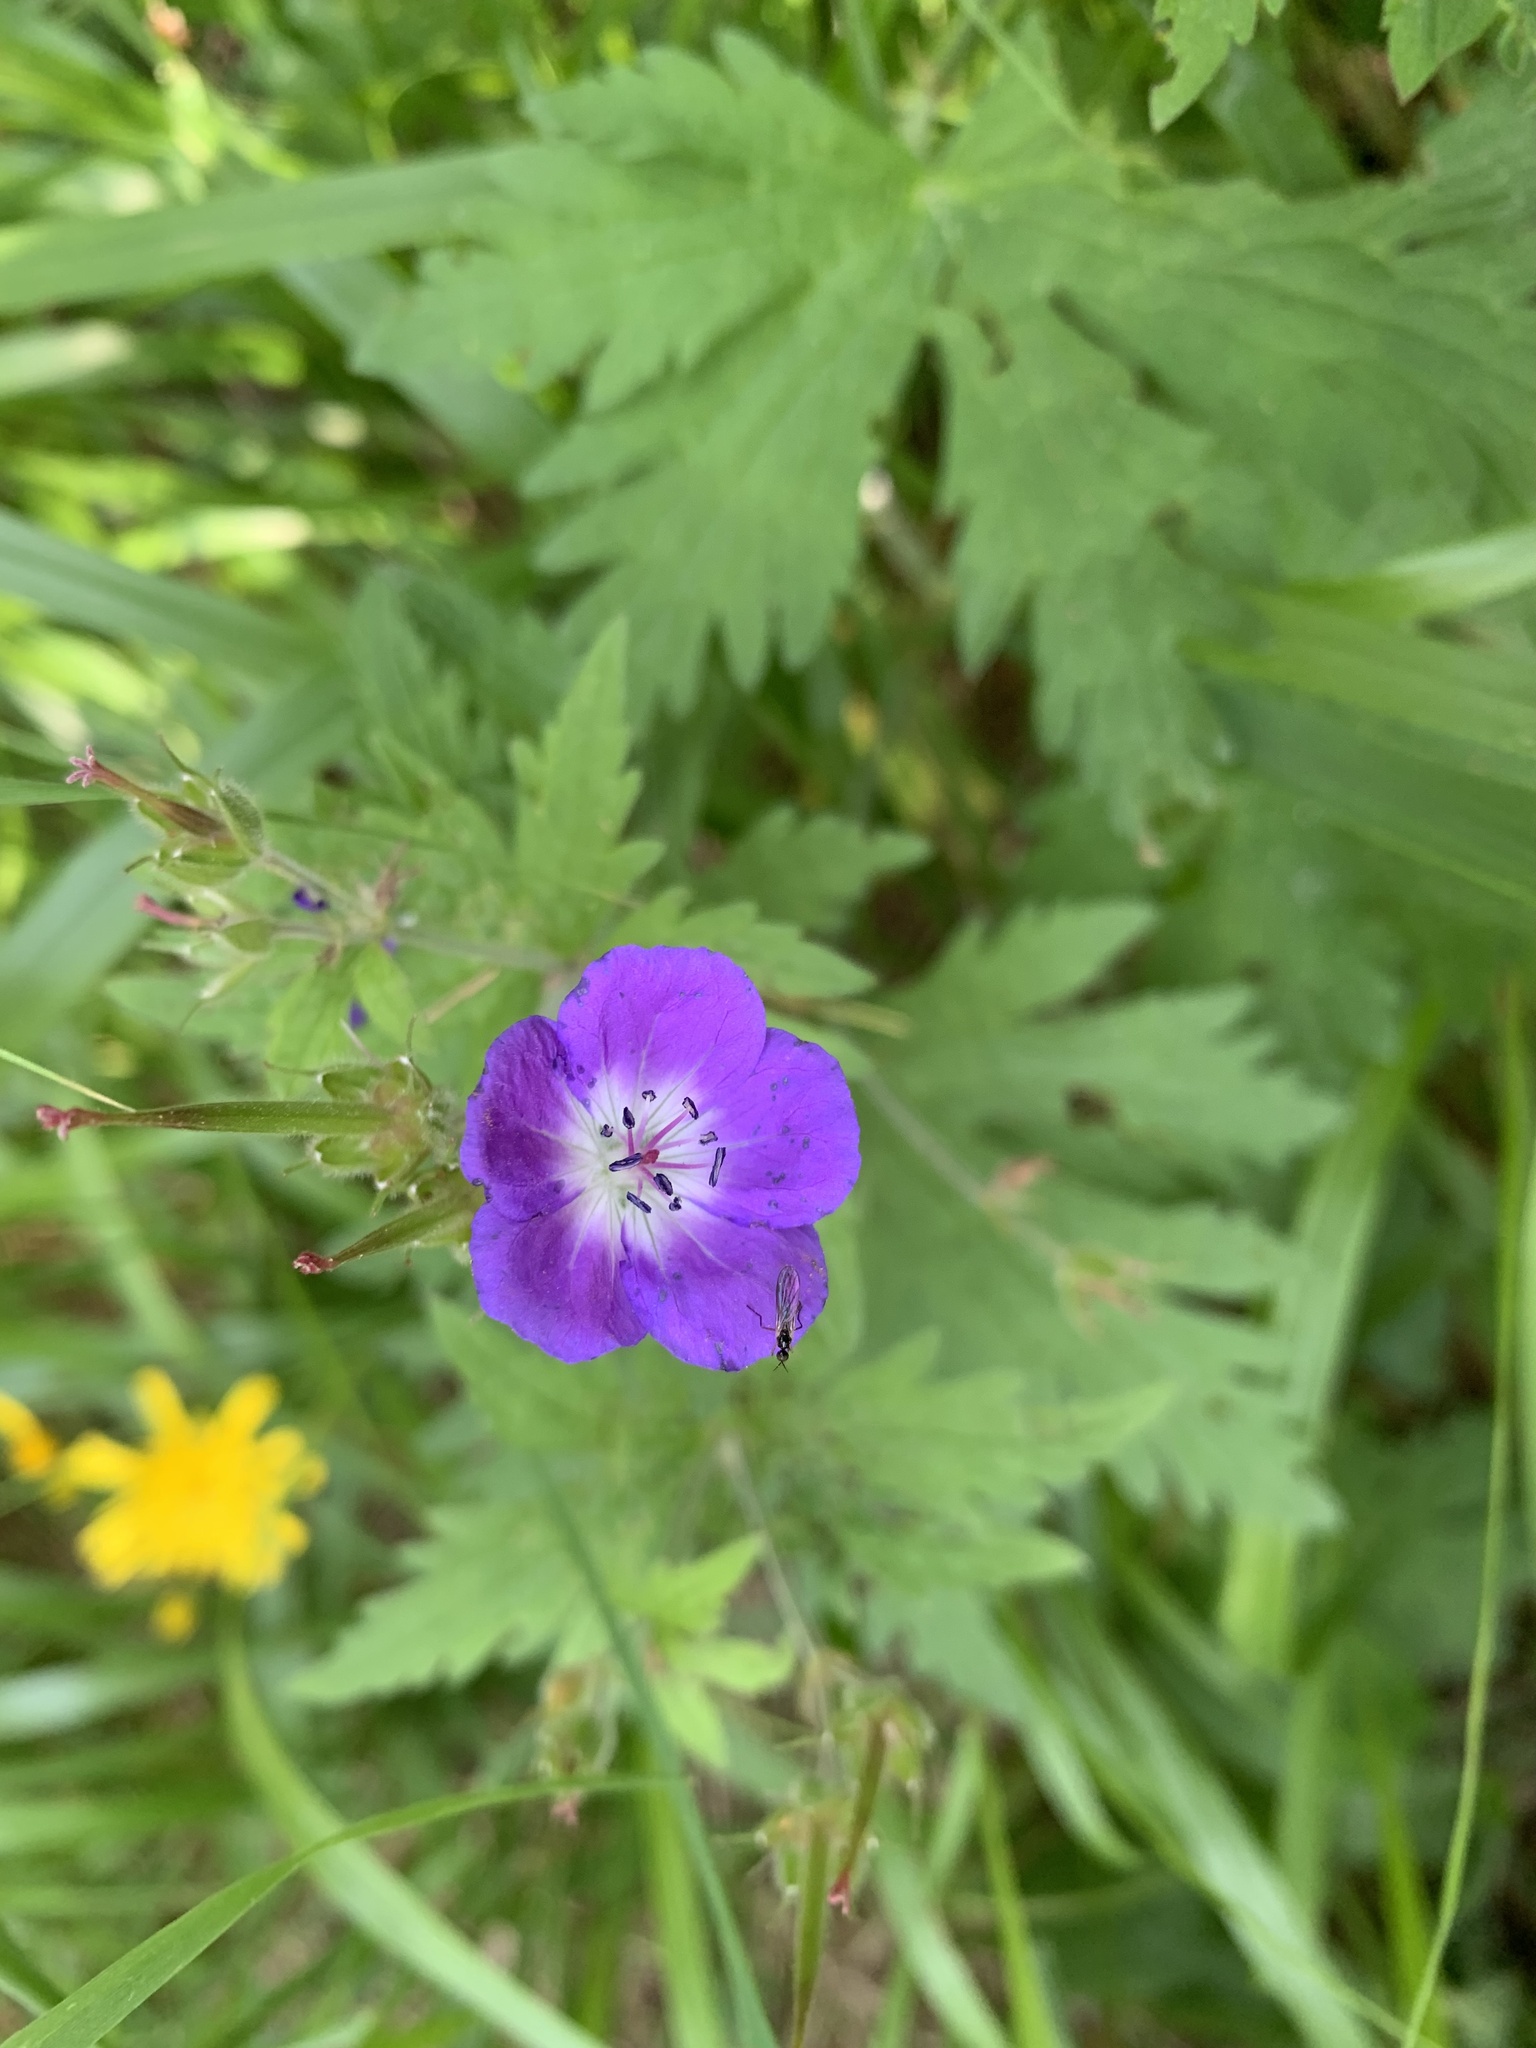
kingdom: Plantae
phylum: Tracheophyta
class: Magnoliopsida
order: Geraniales
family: Geraniaceae
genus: Geranium
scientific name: Geranium sylvaticum
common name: Wood crane's-bill
